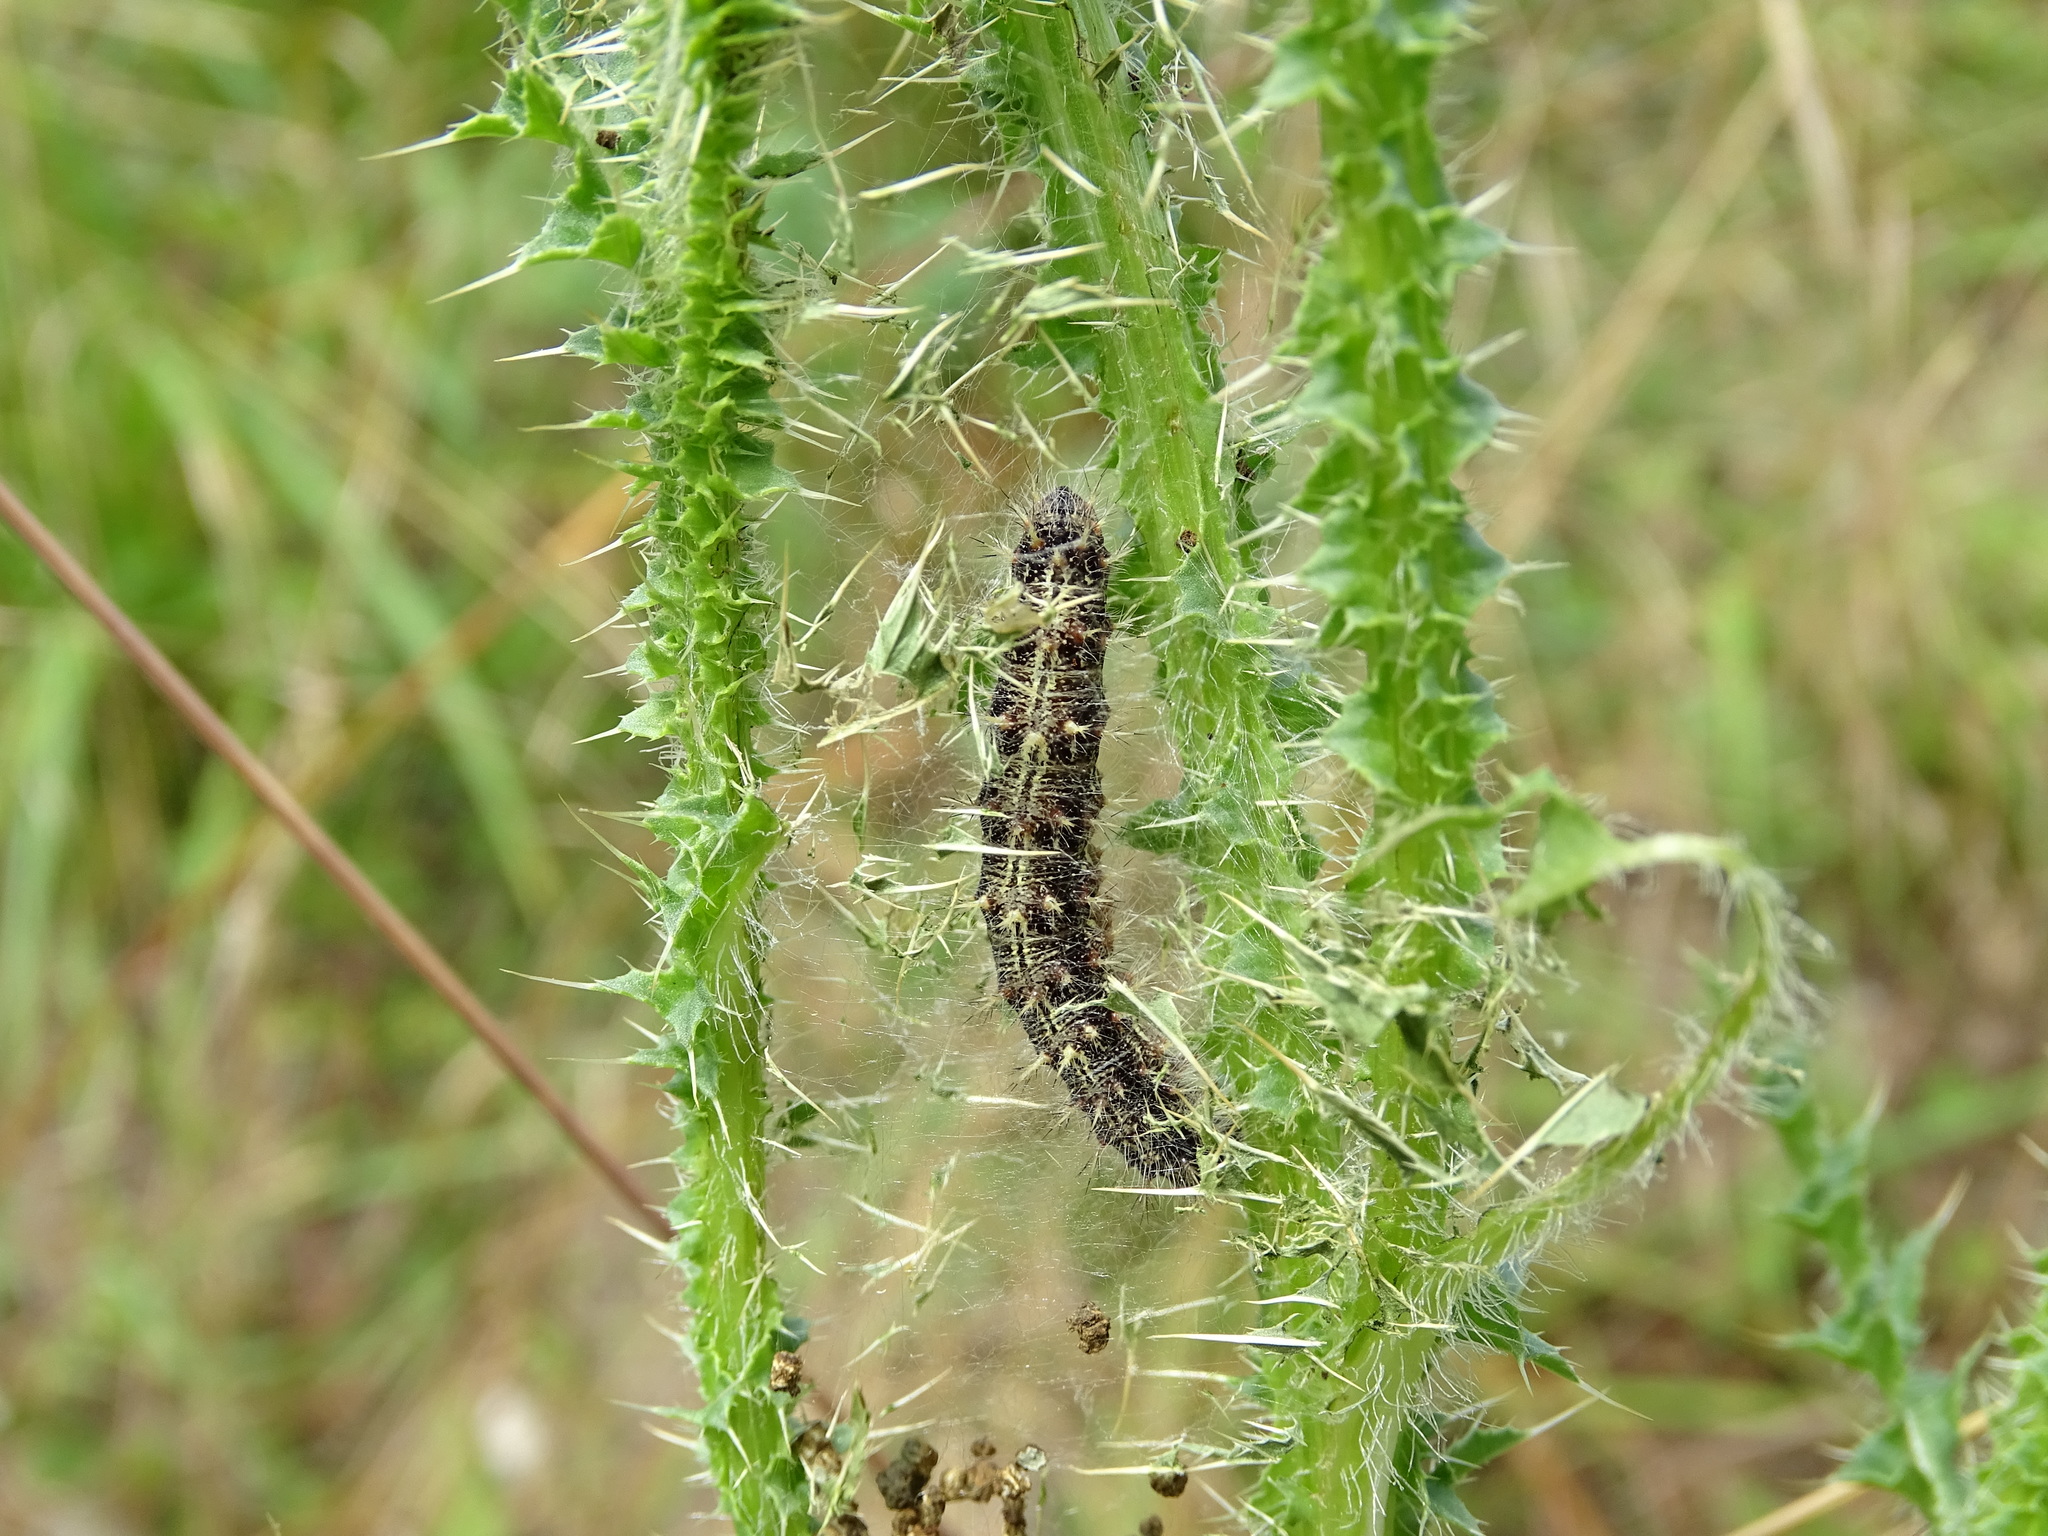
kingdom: Animalia
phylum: Arthropoda
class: Insecta
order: Lepidoptera
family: Nymphalidae
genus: Vanessa
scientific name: Vanessa cardui
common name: Painted lady
